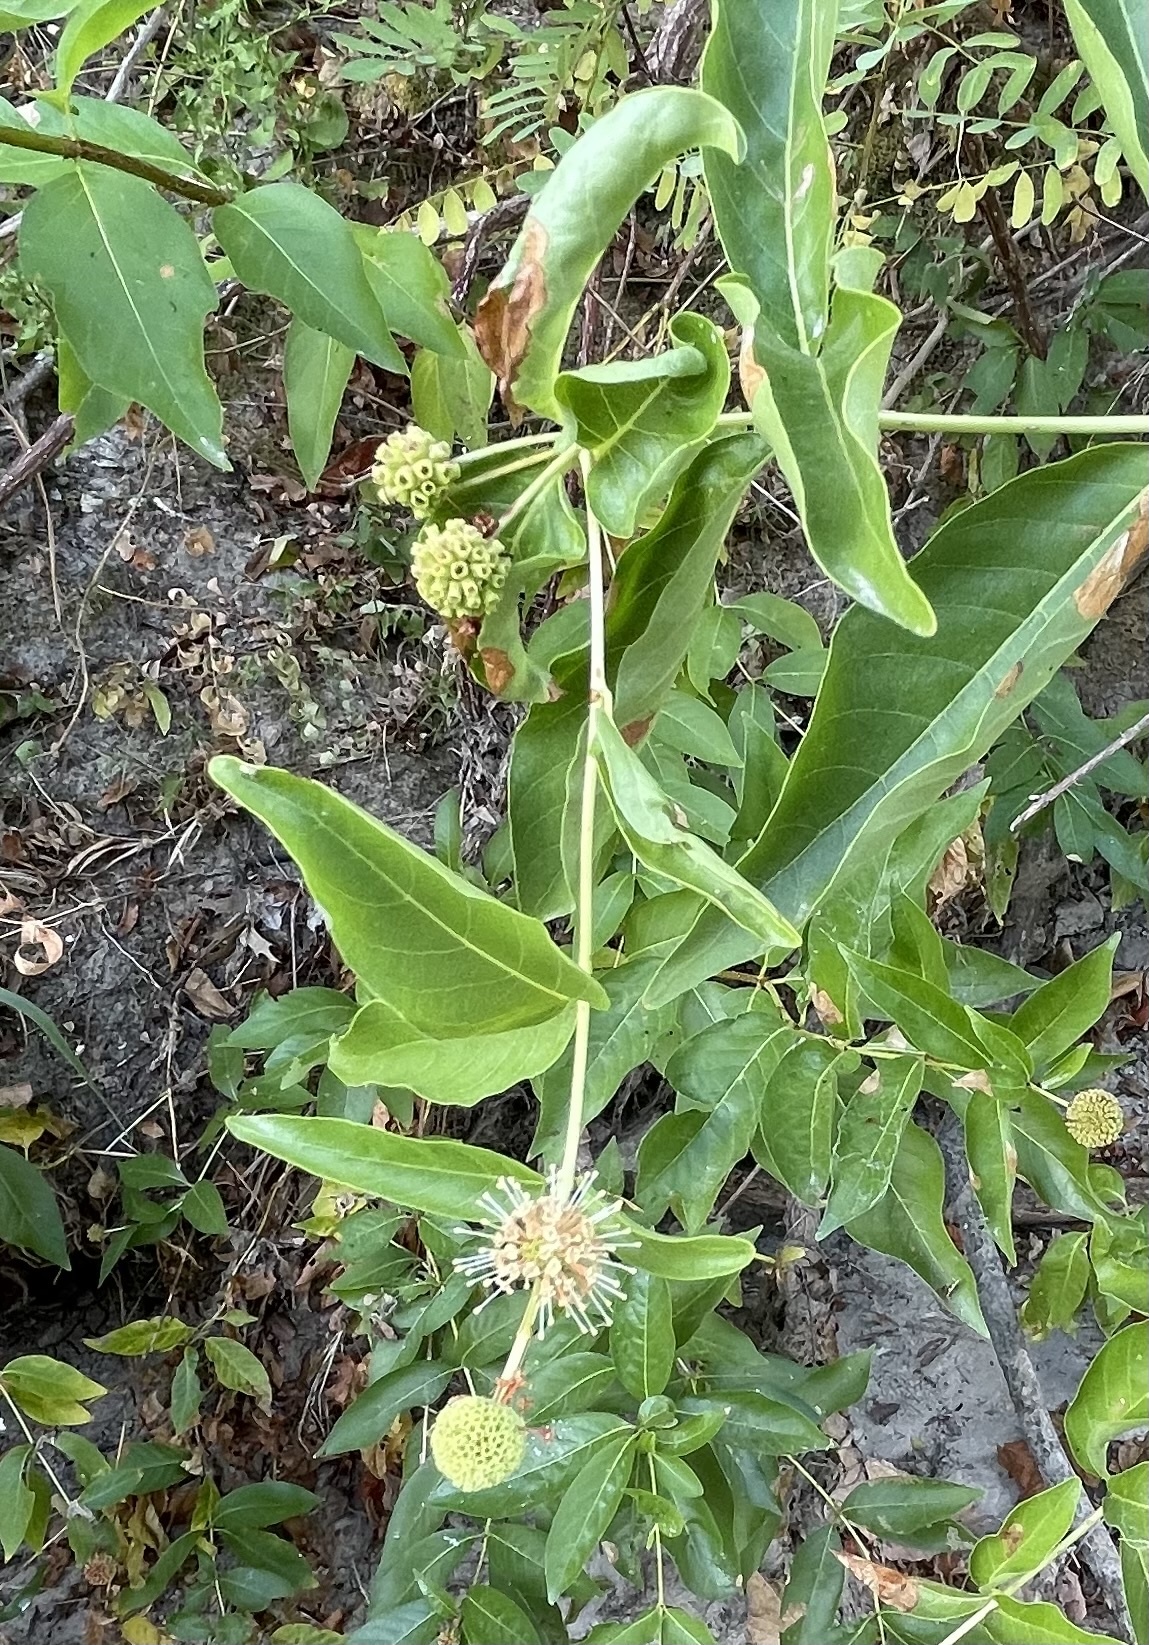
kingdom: Plantae
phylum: Tracheophyta
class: Magnoliopsida
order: Gentianales
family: Rubiaceae
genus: Cephalanthus
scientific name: Cephalanthus occidentalis
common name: Button-willow
